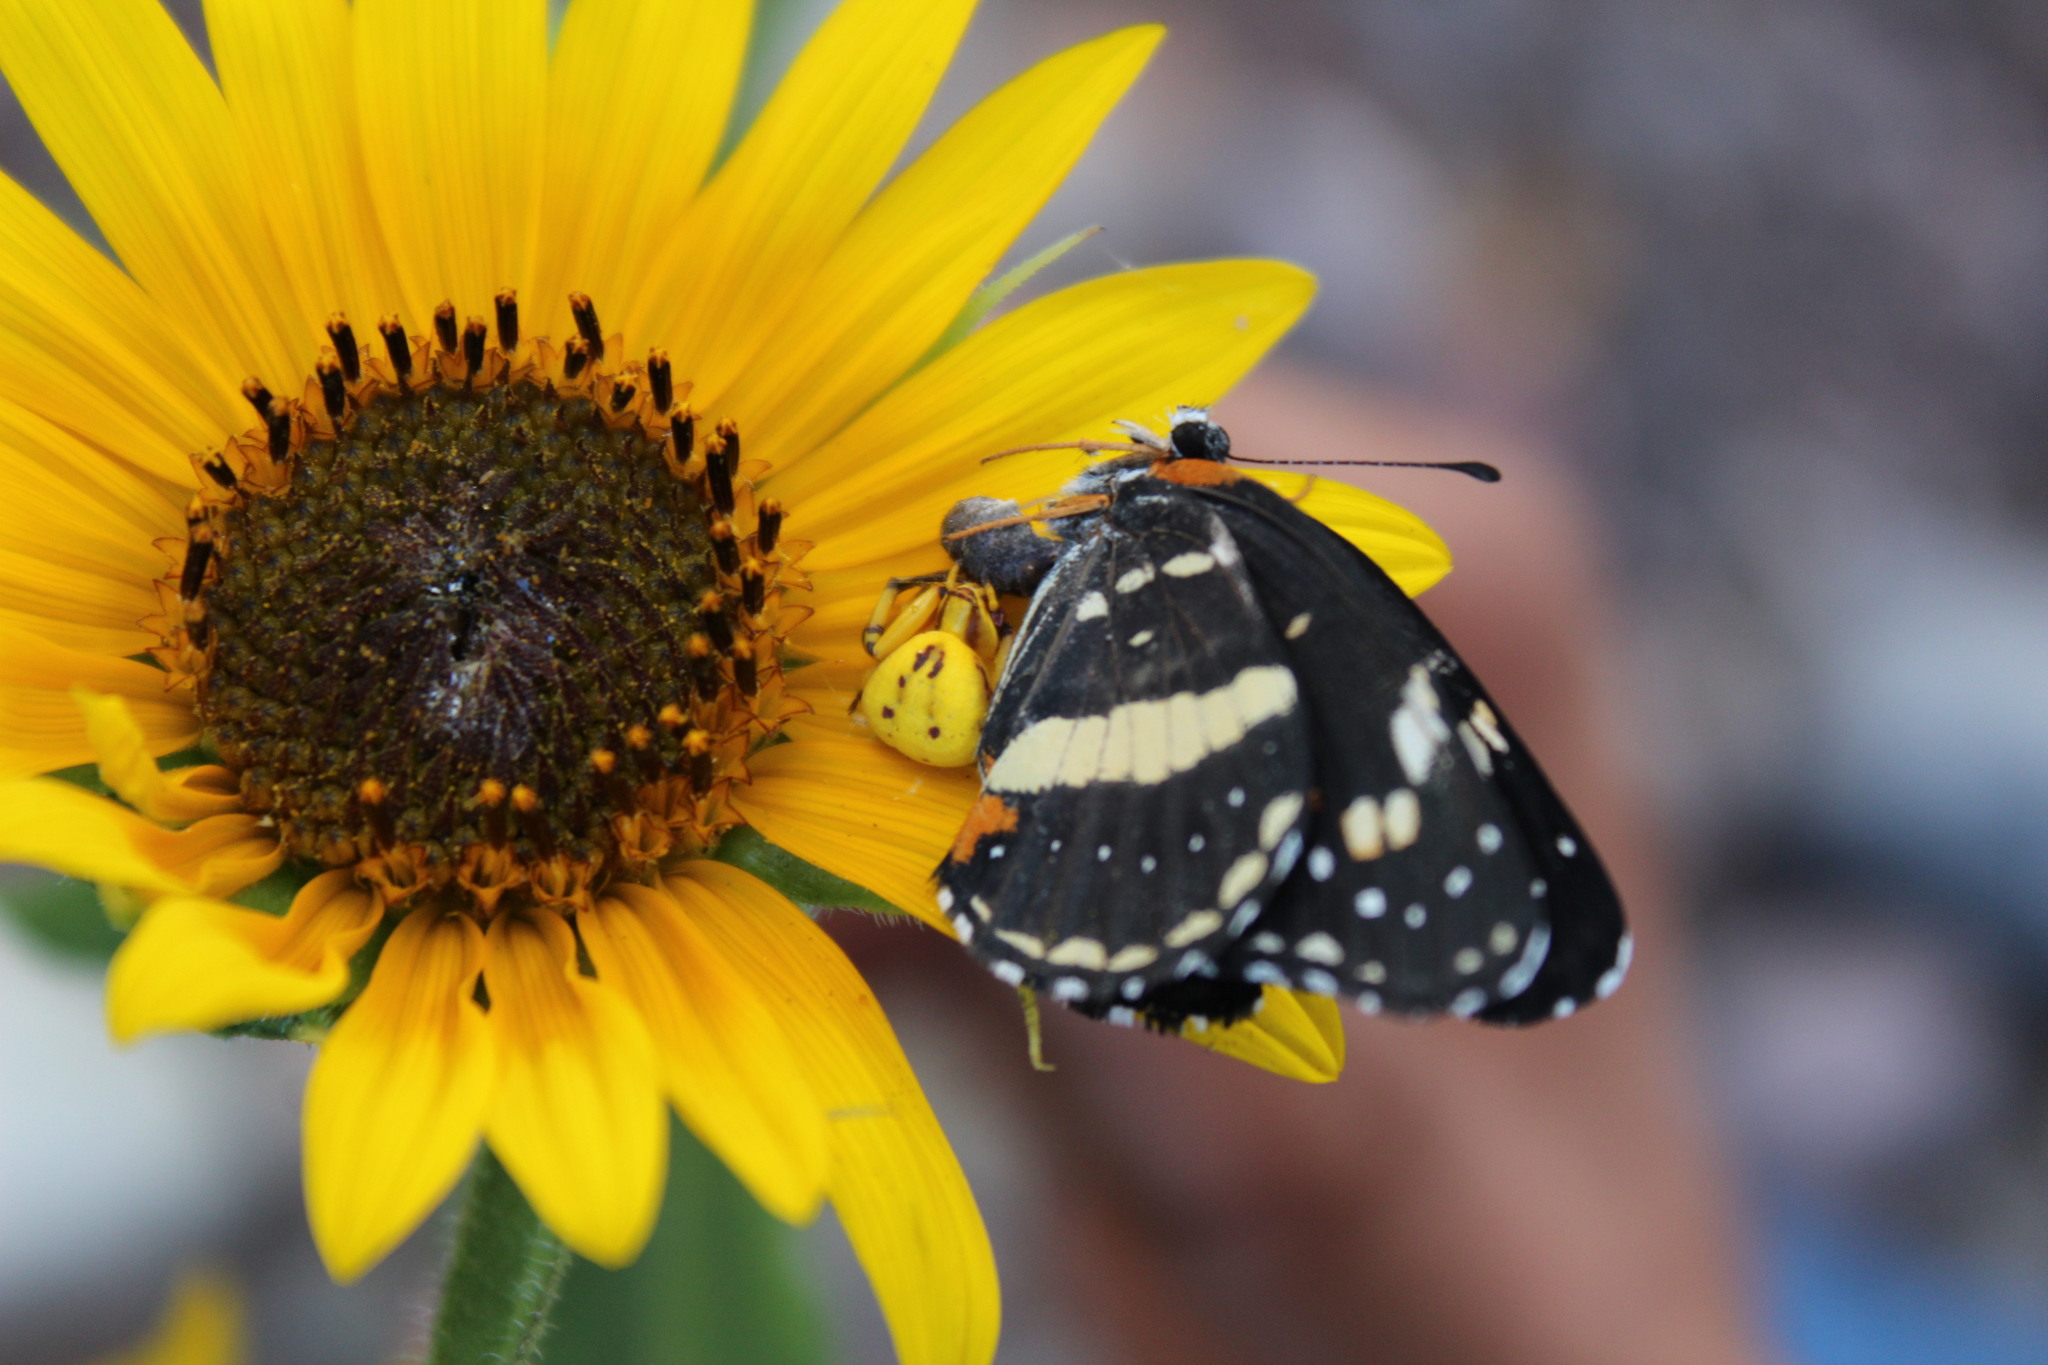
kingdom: Animalia
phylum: Arthropoda
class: Insecta
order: Lepidoptera
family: Nymphalidae
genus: Chlosyne
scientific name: Chlosyne lacinia
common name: Bordered patch
